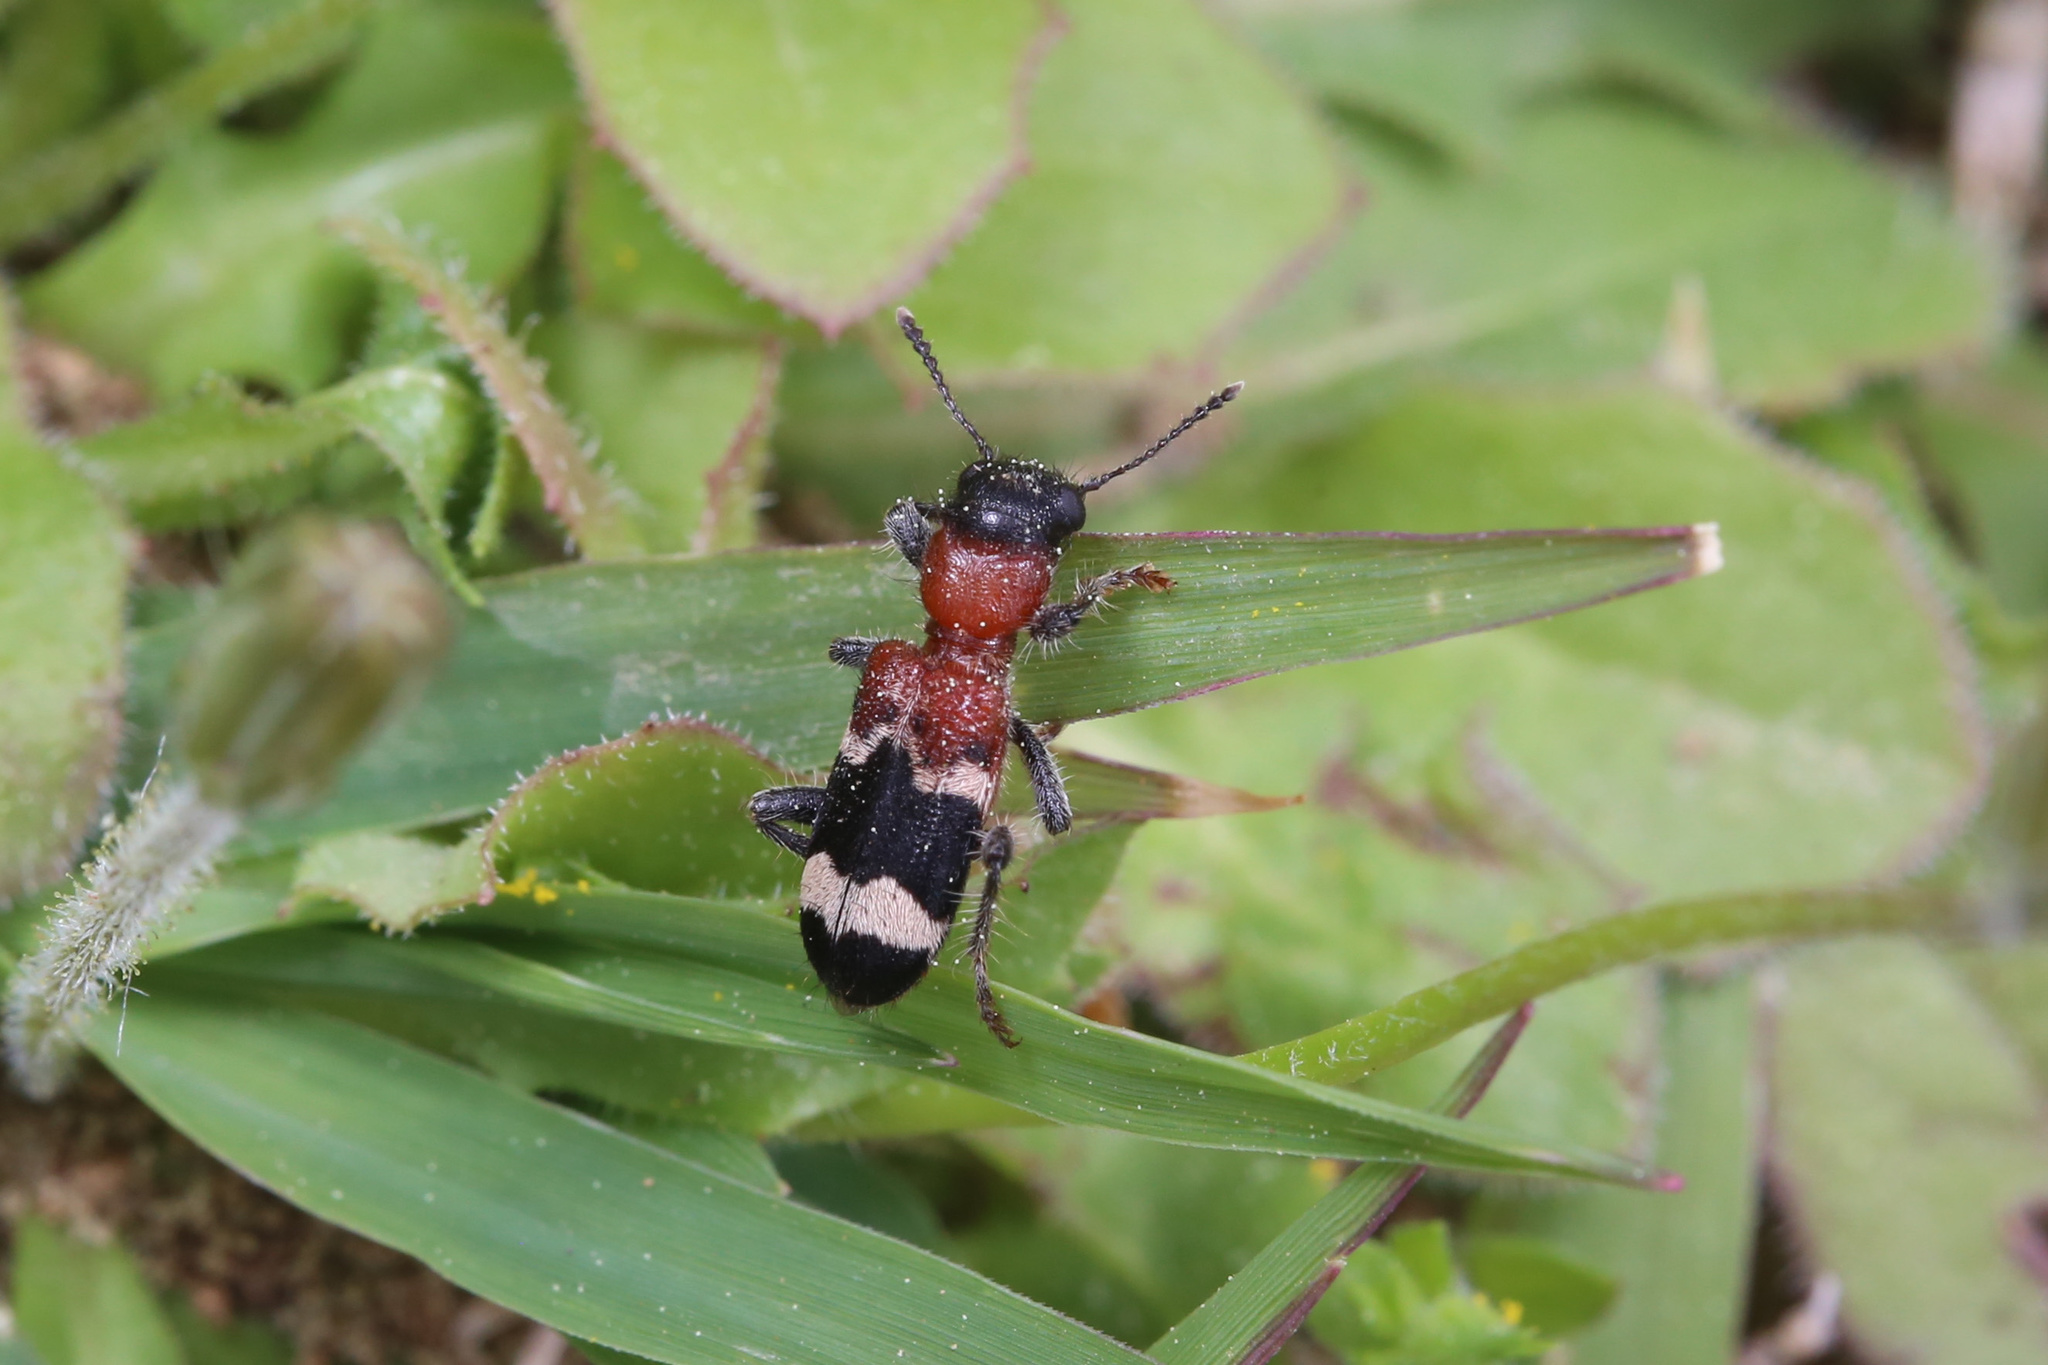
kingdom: Animalia
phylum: Arthropoda
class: Insecta
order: Coleoptera
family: Cleridae
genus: Thanasimus
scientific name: Thanasimus formicarius
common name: Ant beetle
